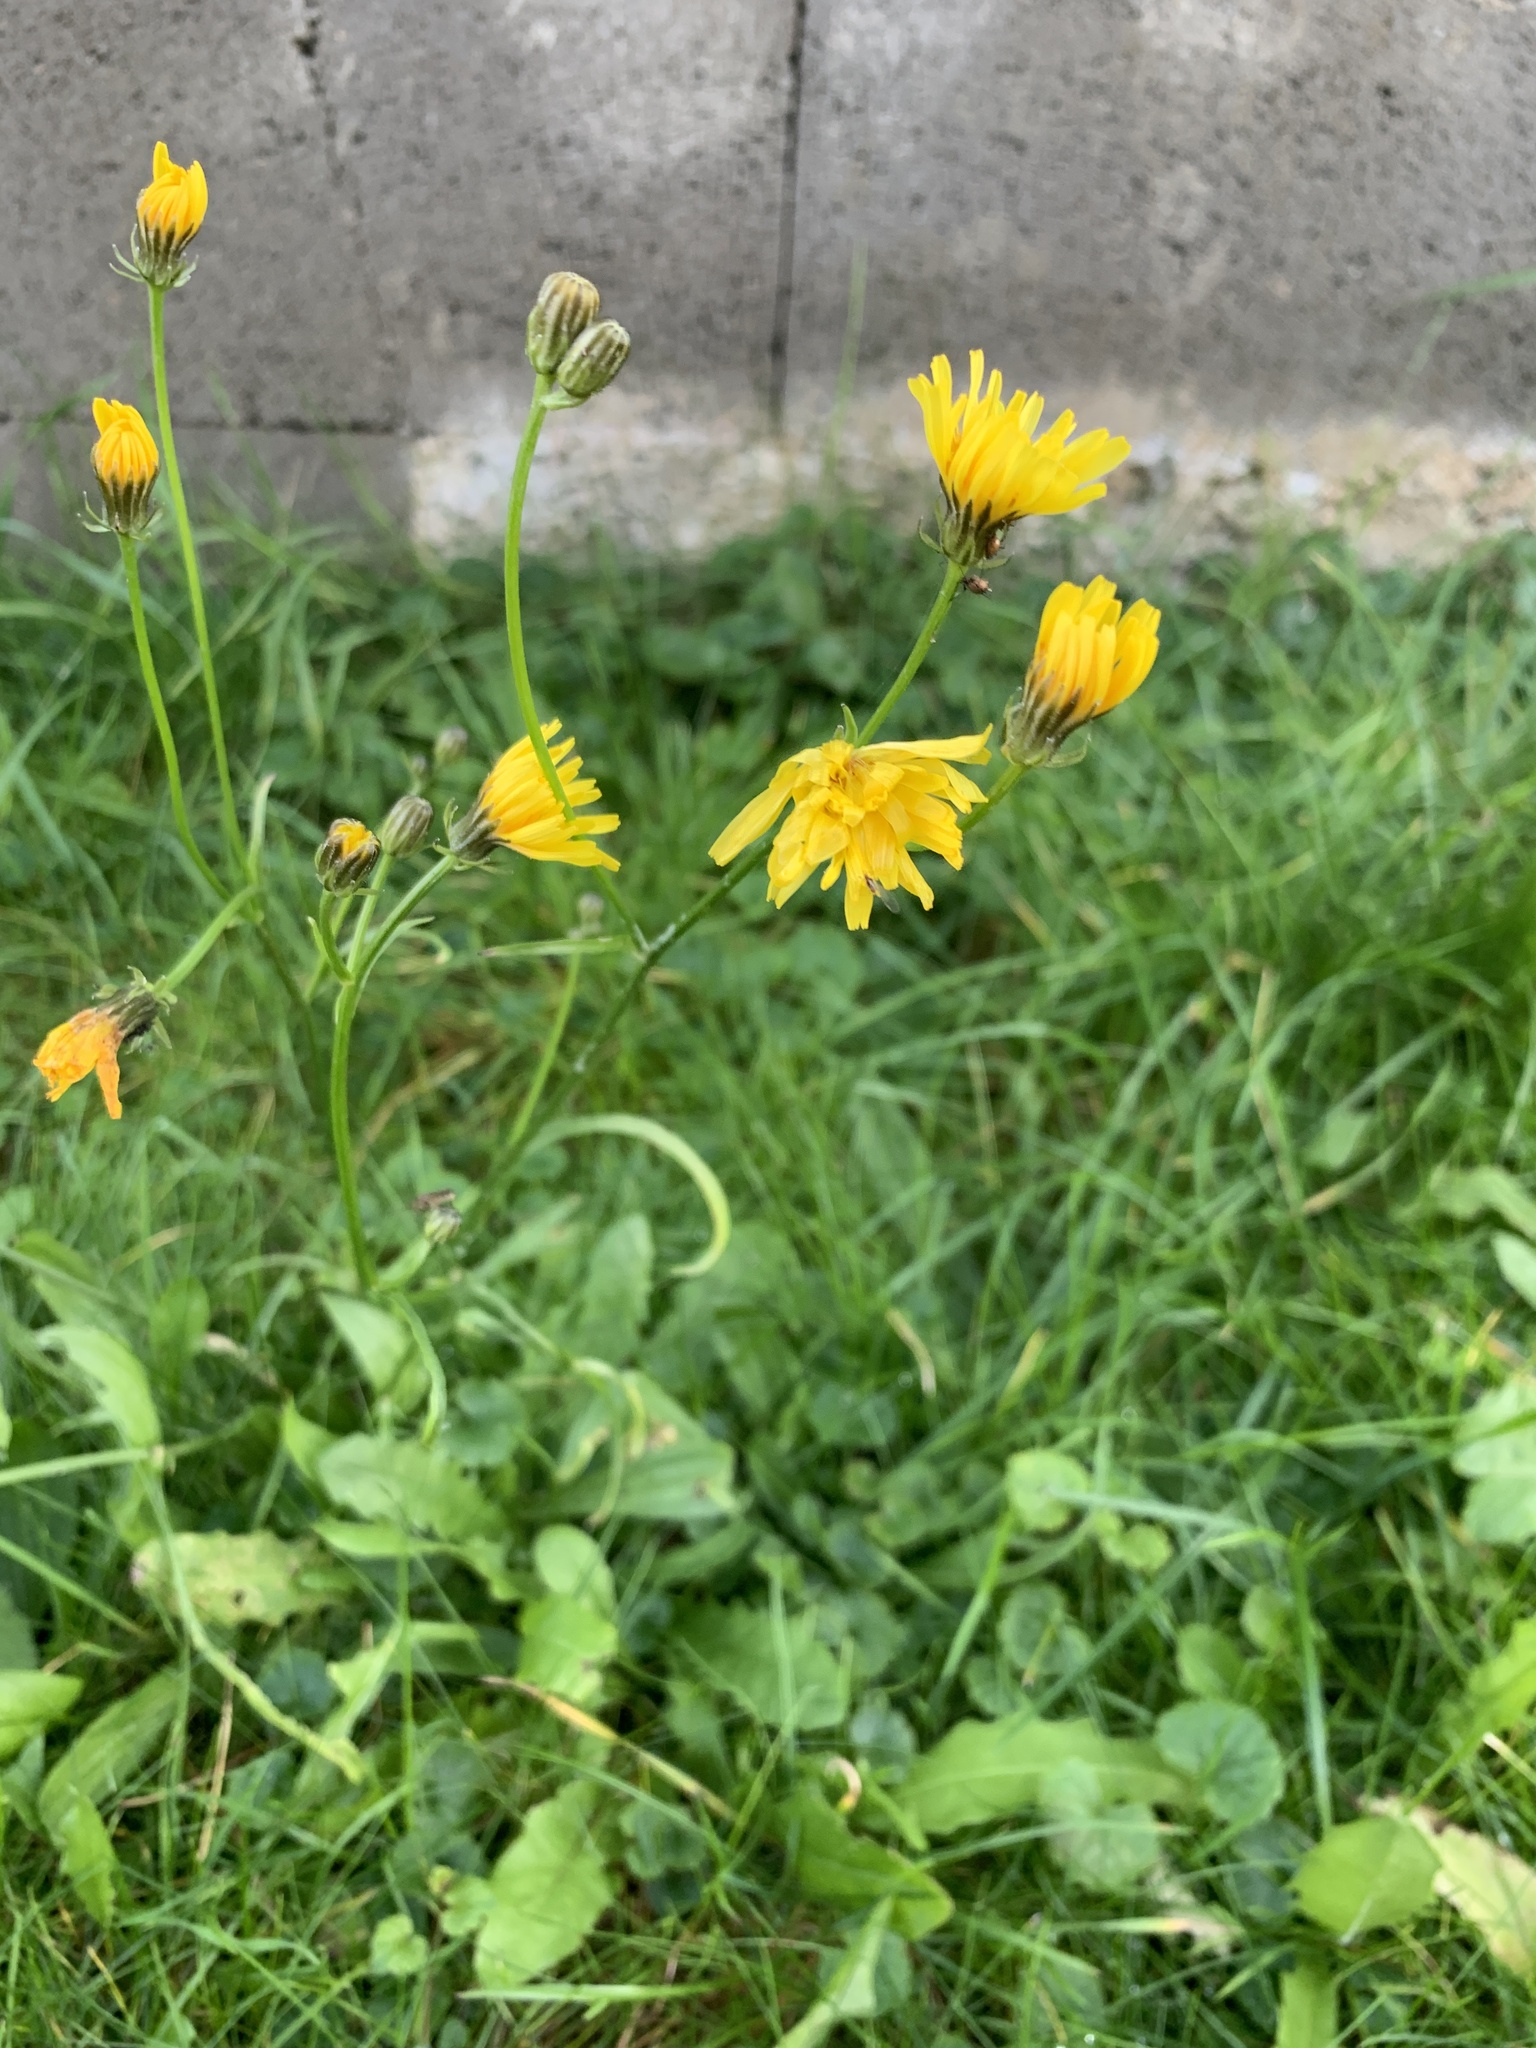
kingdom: Plantae
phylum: Tracheophyta
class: Magnoliopsida
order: Asterales
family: Asteraceae
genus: Crepis
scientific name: Crepis biennis
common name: Rough hawk's-beard
